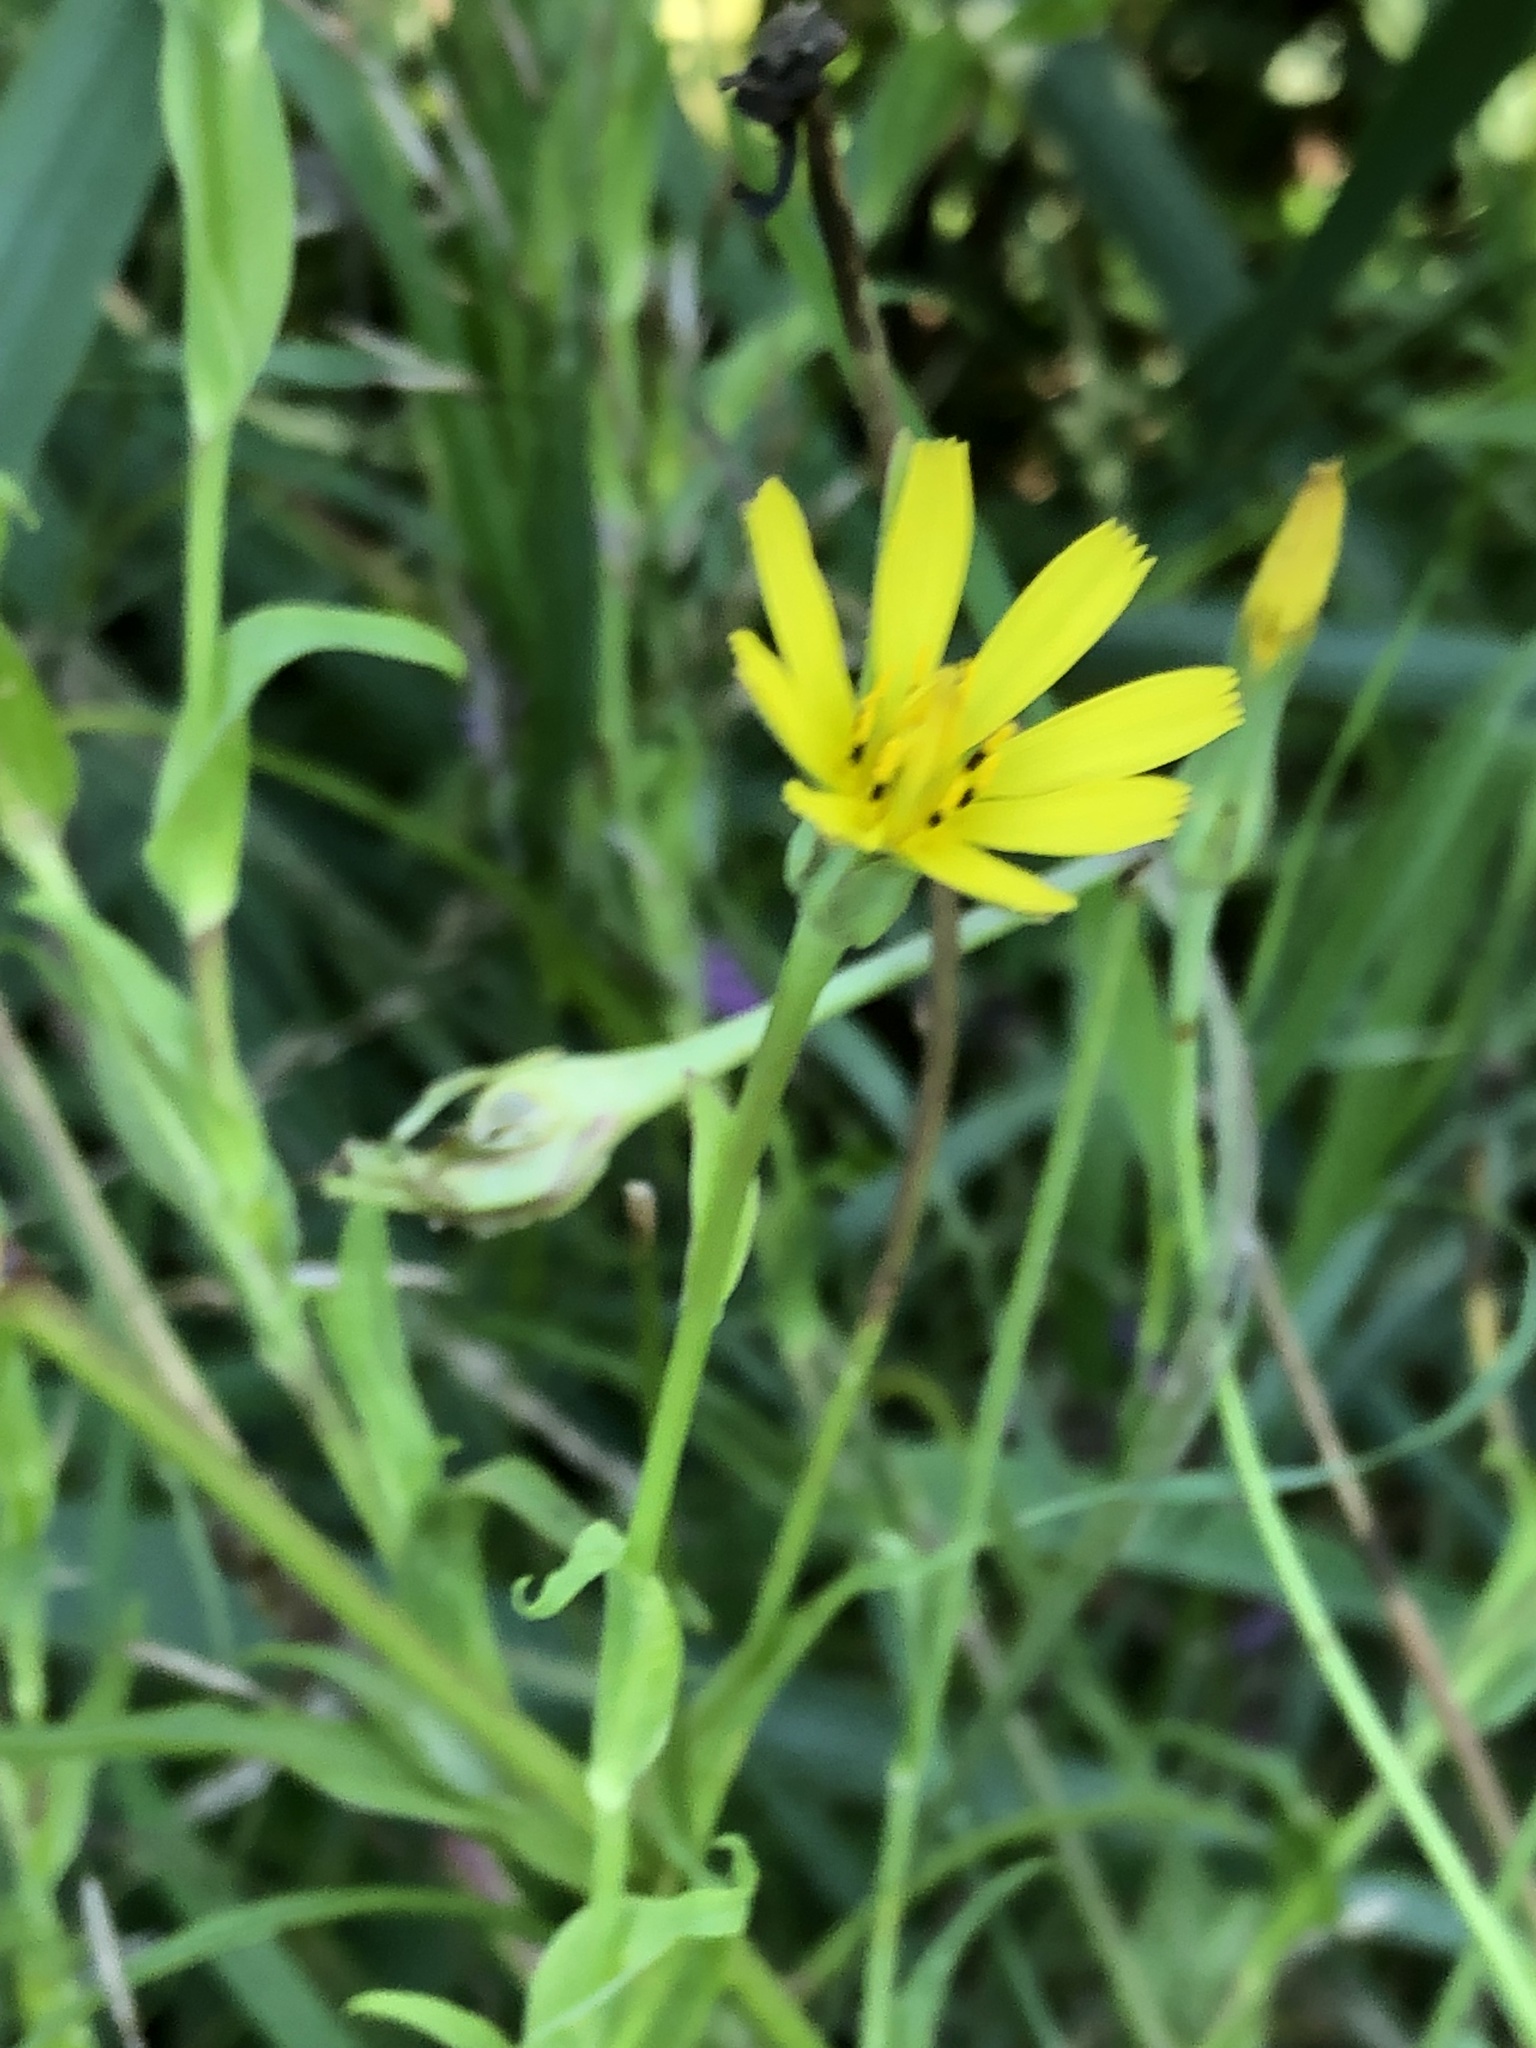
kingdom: Plantae
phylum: Tracheophyta
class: Magnoliopsida
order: Asterales
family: Asteraceae
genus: Tragopogon
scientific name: Tragopogon pratensis
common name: Goat's-beard
